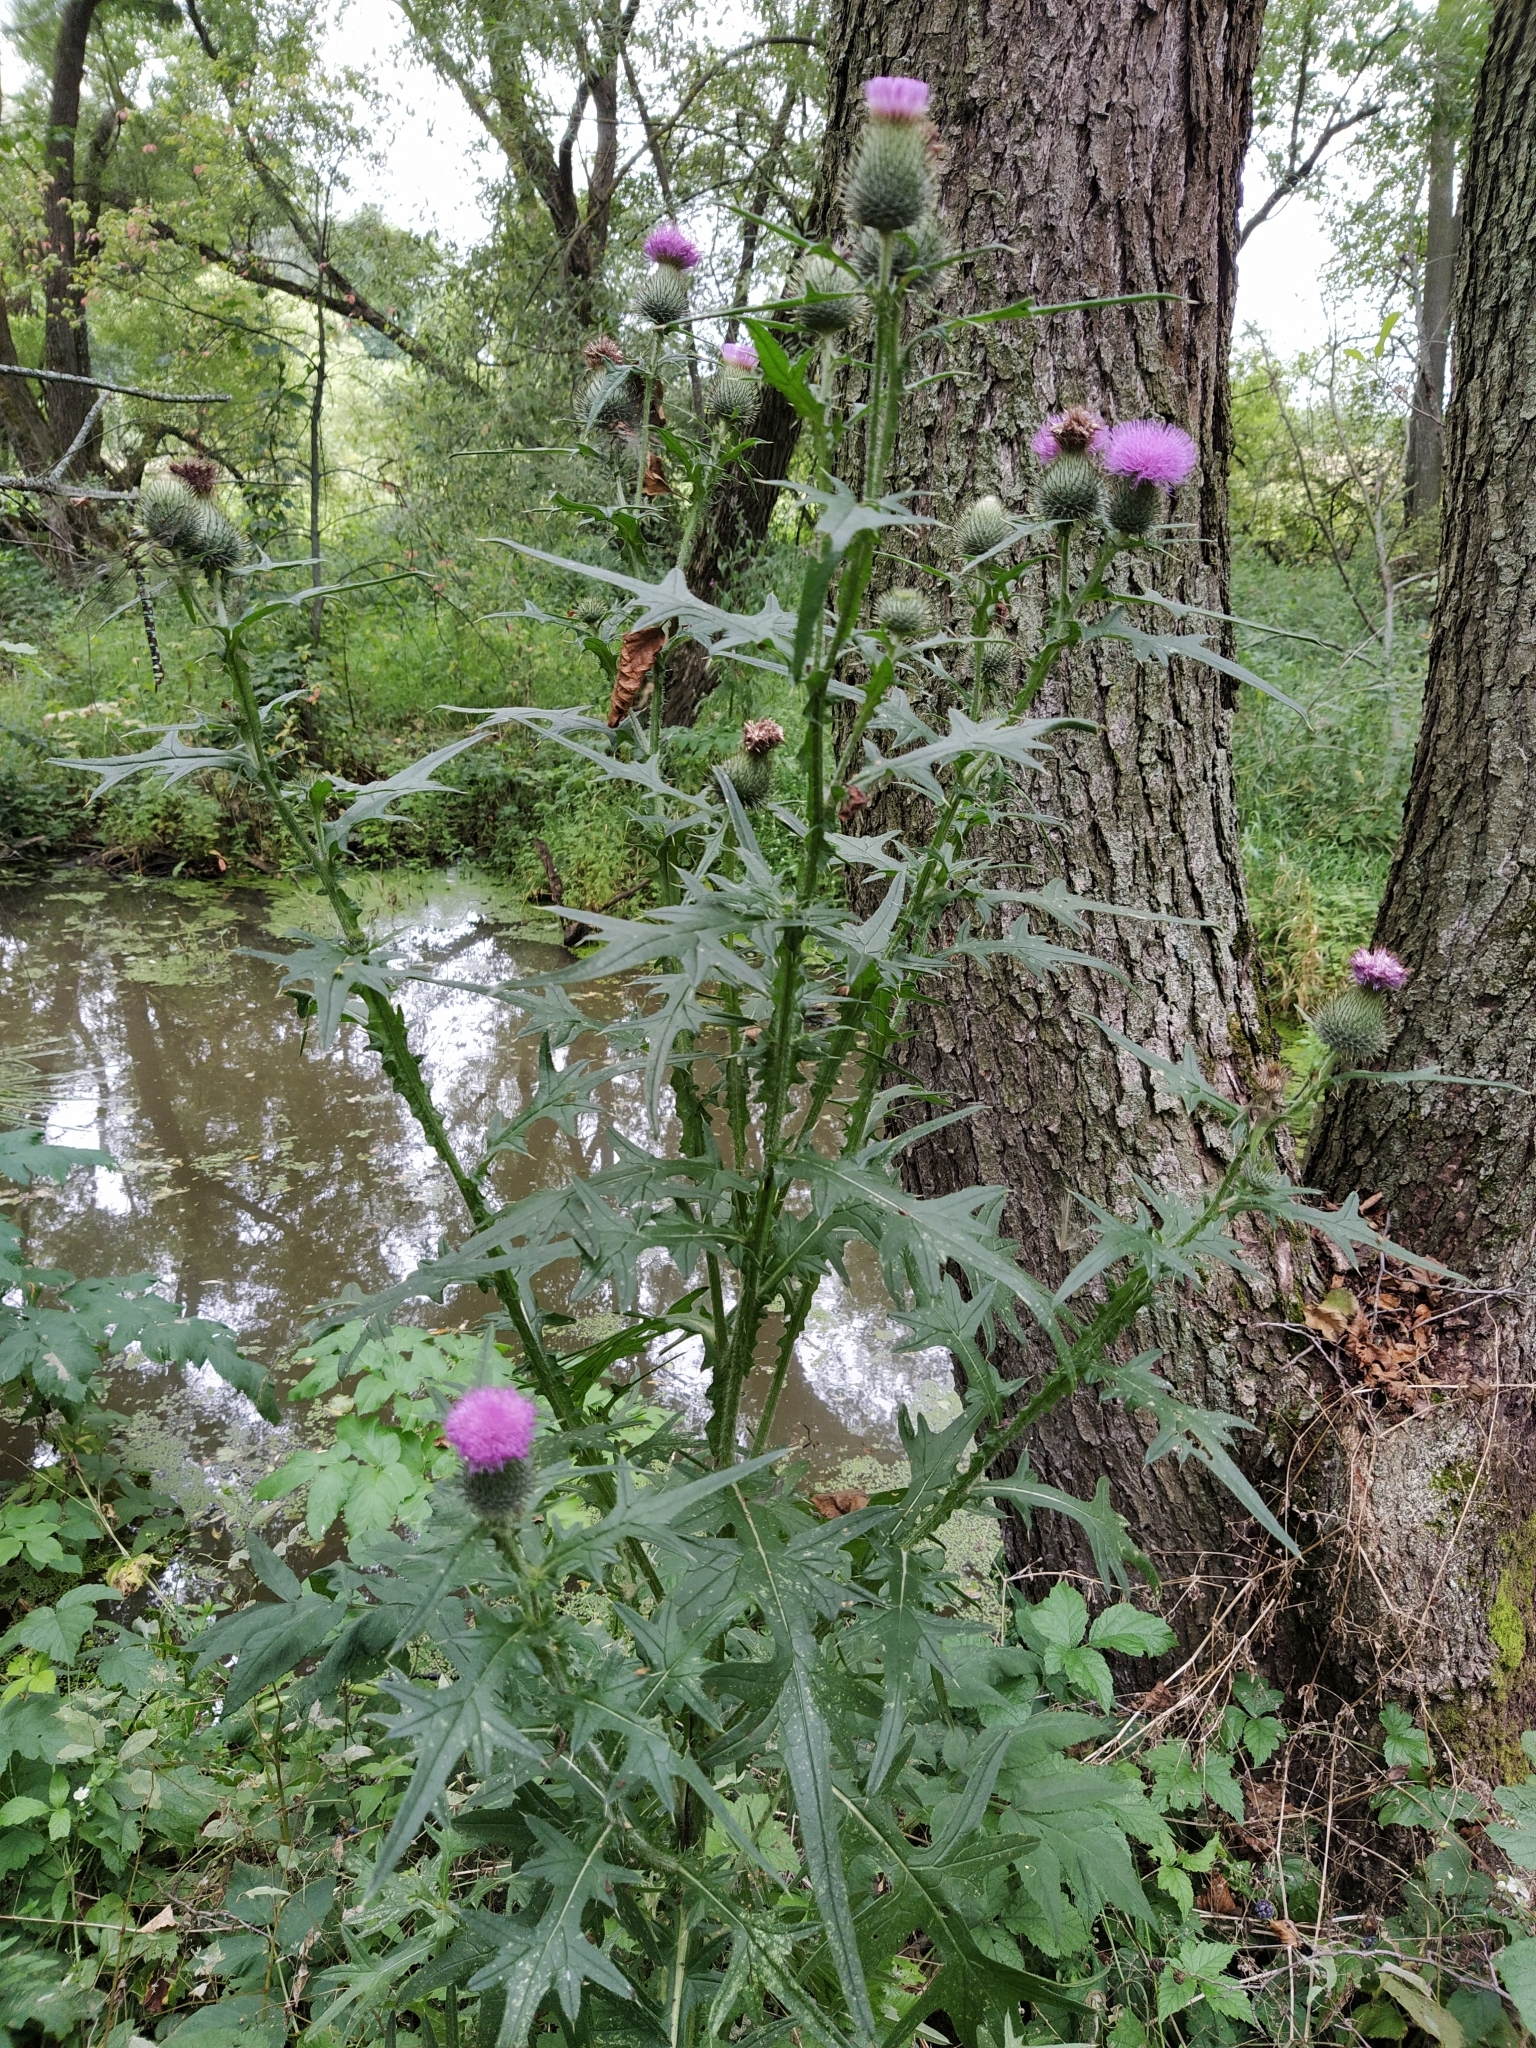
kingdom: Plantae
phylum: Tracheophyta
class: Magnoliopsida
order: Asterales
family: Asteraceae
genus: Cirsium
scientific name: Cirsium vulgare
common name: Bull thistle
